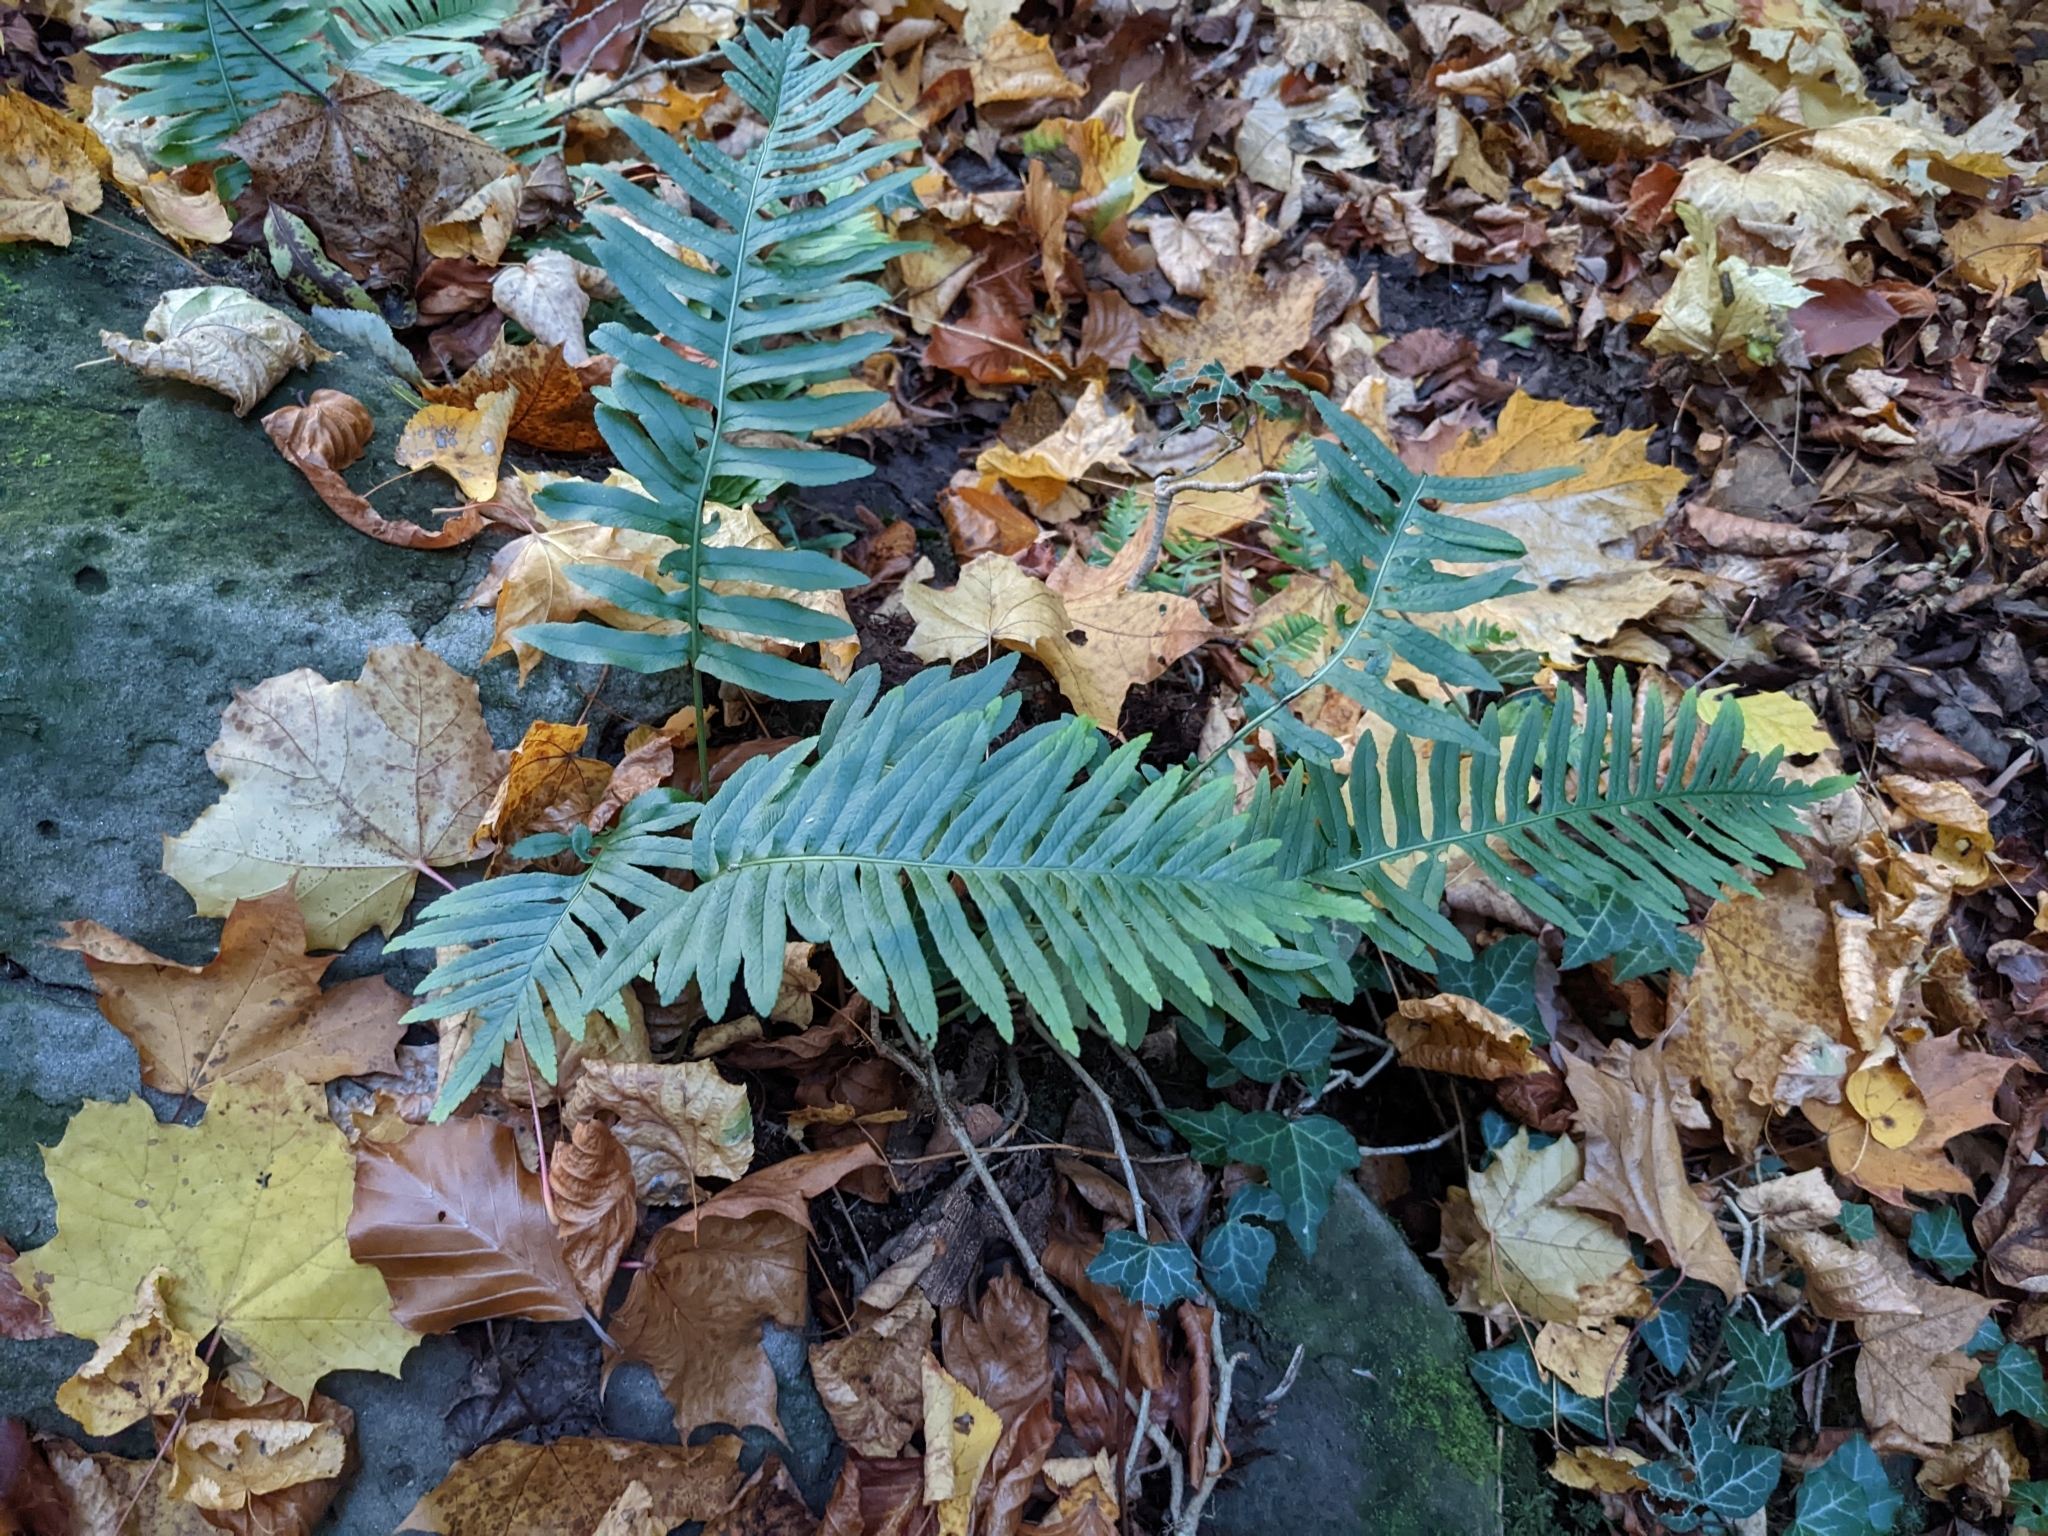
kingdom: Plantae
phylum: Tracheophyta
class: Polypodiopsida
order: Polypodiales
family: Polypodiaceae
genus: Polypodium
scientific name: Polypodium vulgare
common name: Common polypody
